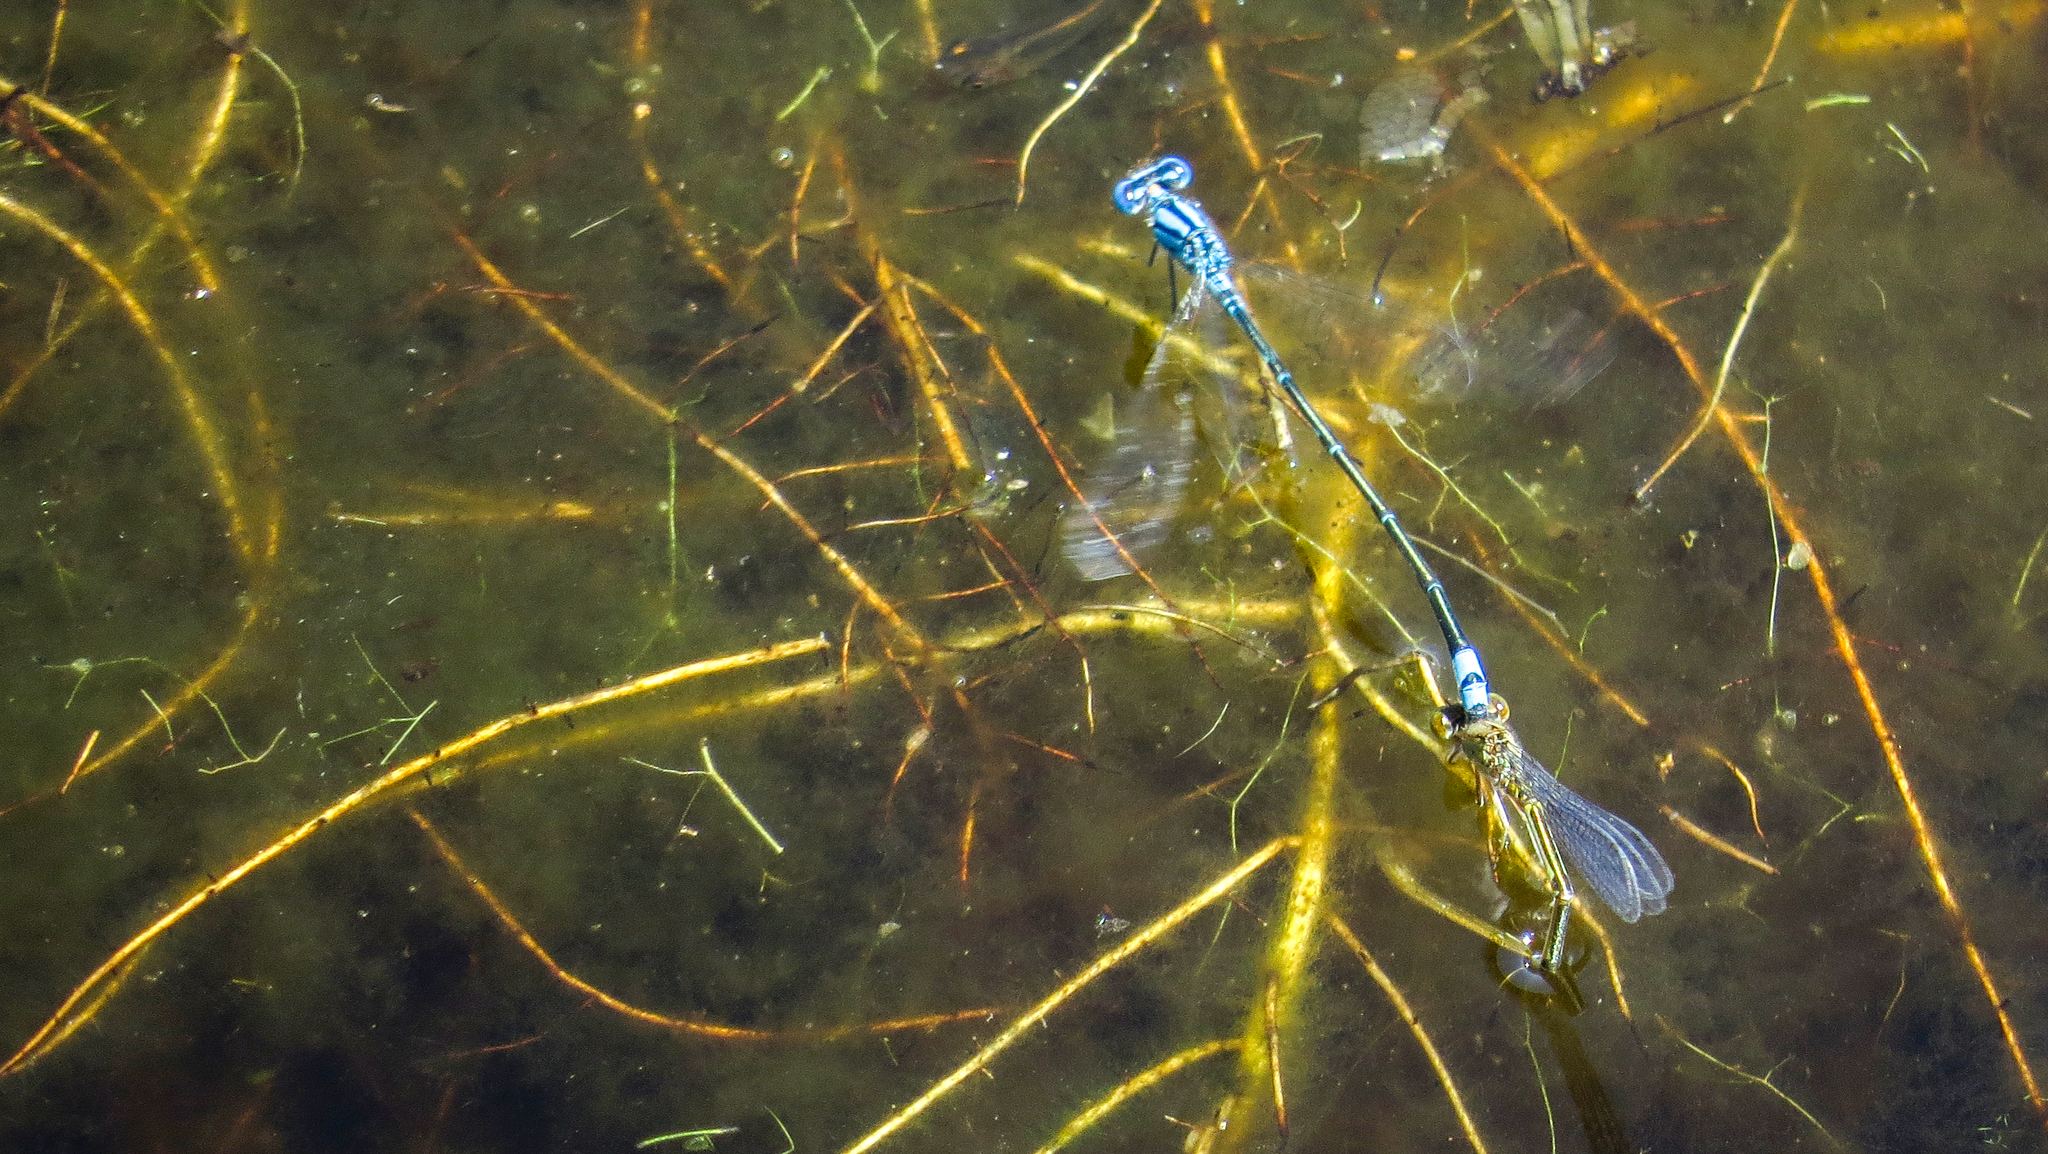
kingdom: Animalia
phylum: Arthropoda
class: Insecta
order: Odonata
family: Coenagrionidae
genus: Pseudagrion
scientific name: Pseudagrion microcephalum
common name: Blue riverdamsel
